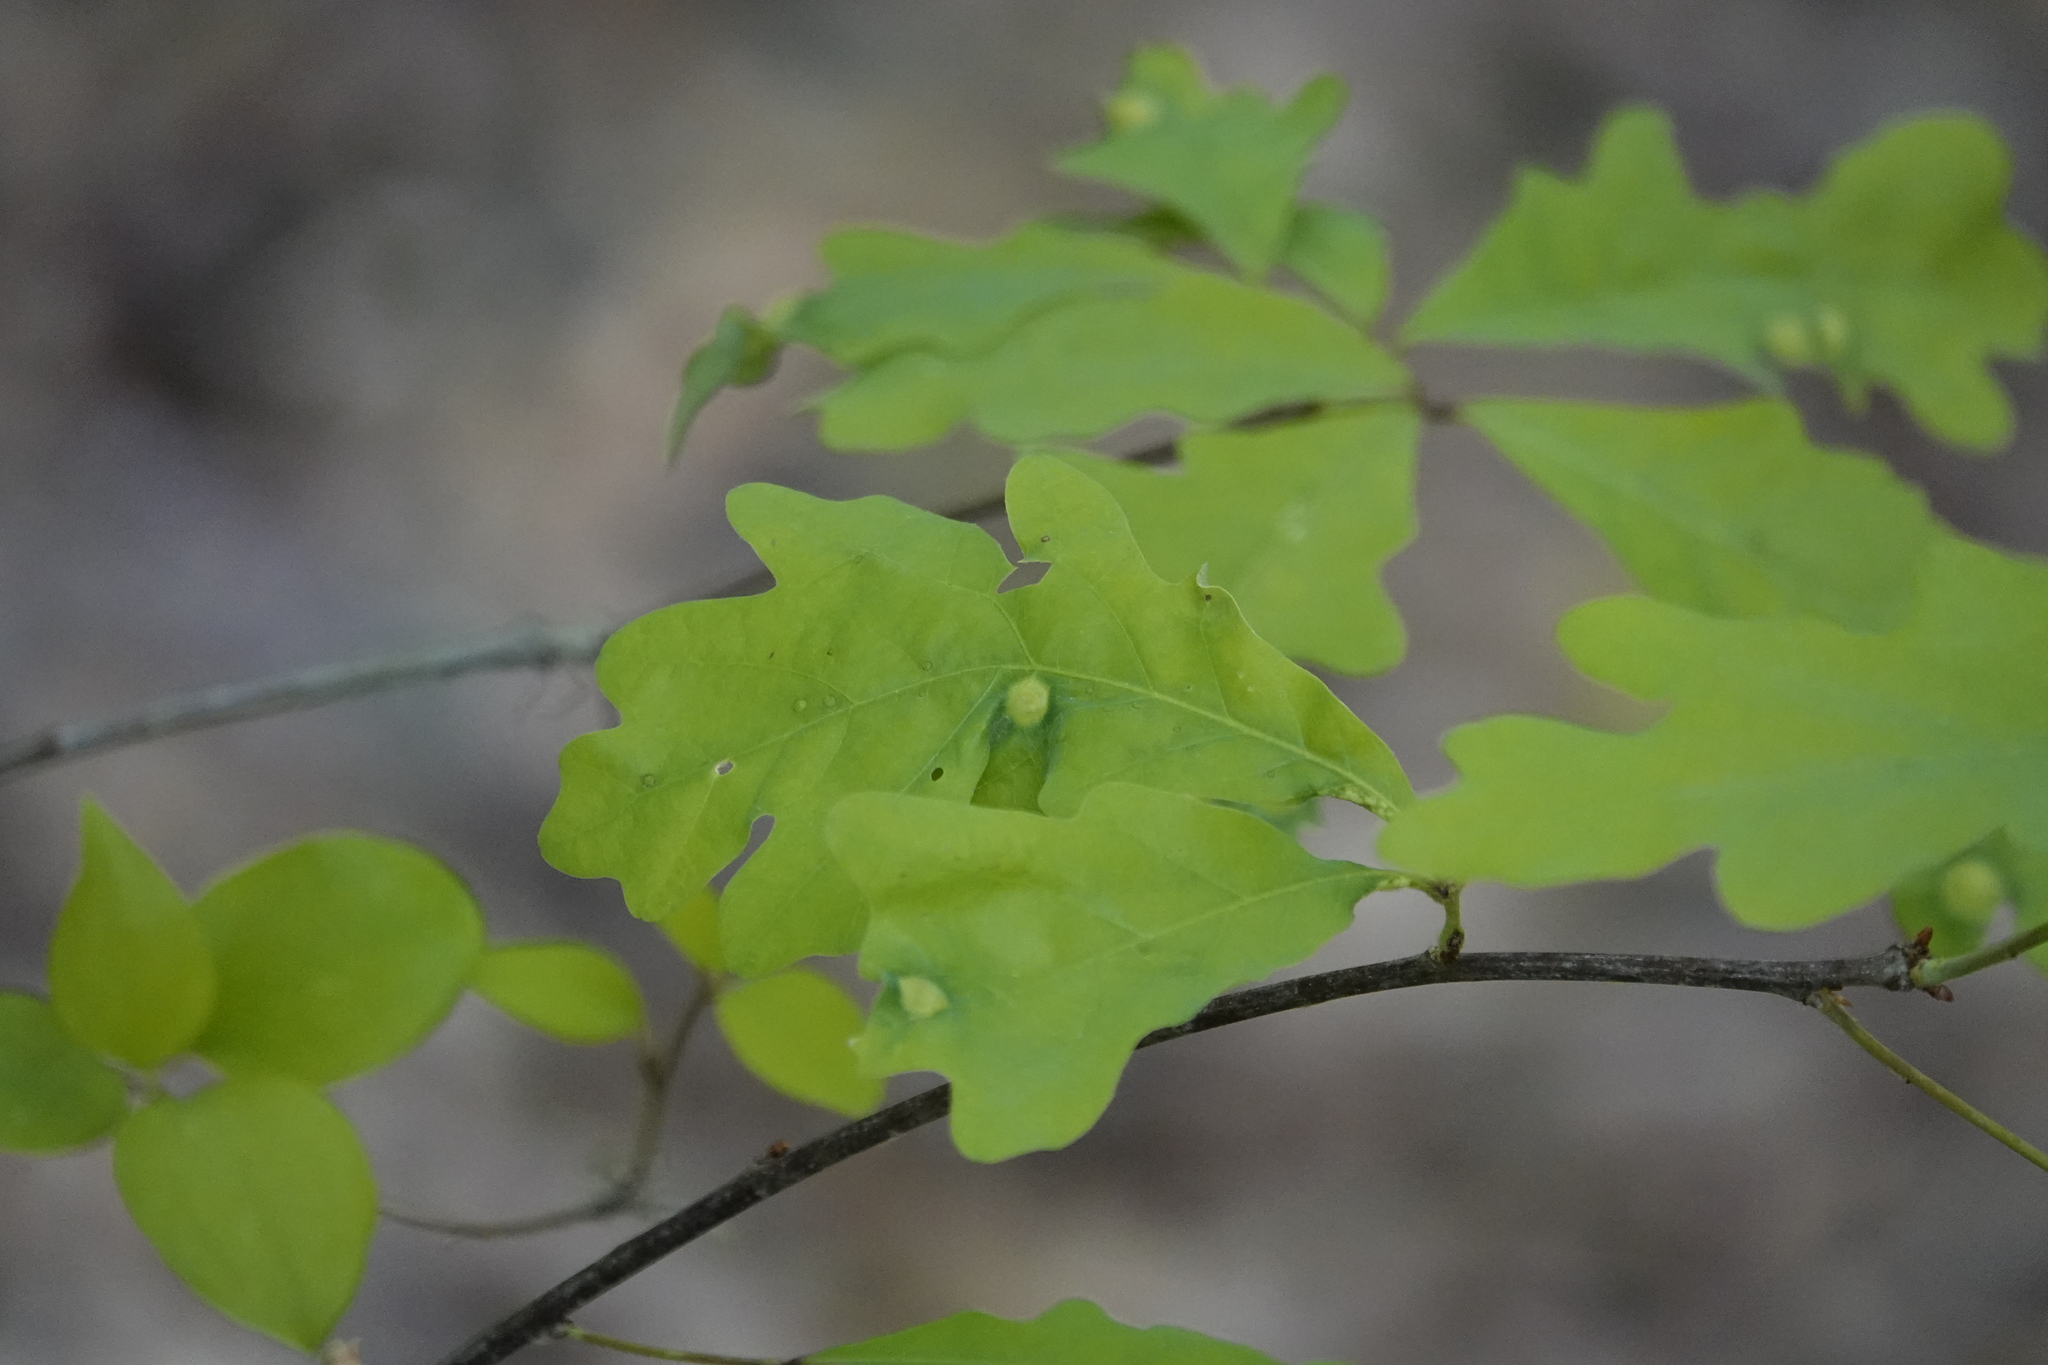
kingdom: Animalia
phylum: Arthropoda
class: Insecta
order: Hymenoptera
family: Cynipidae
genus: Callirhytis
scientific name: Callirhytis
